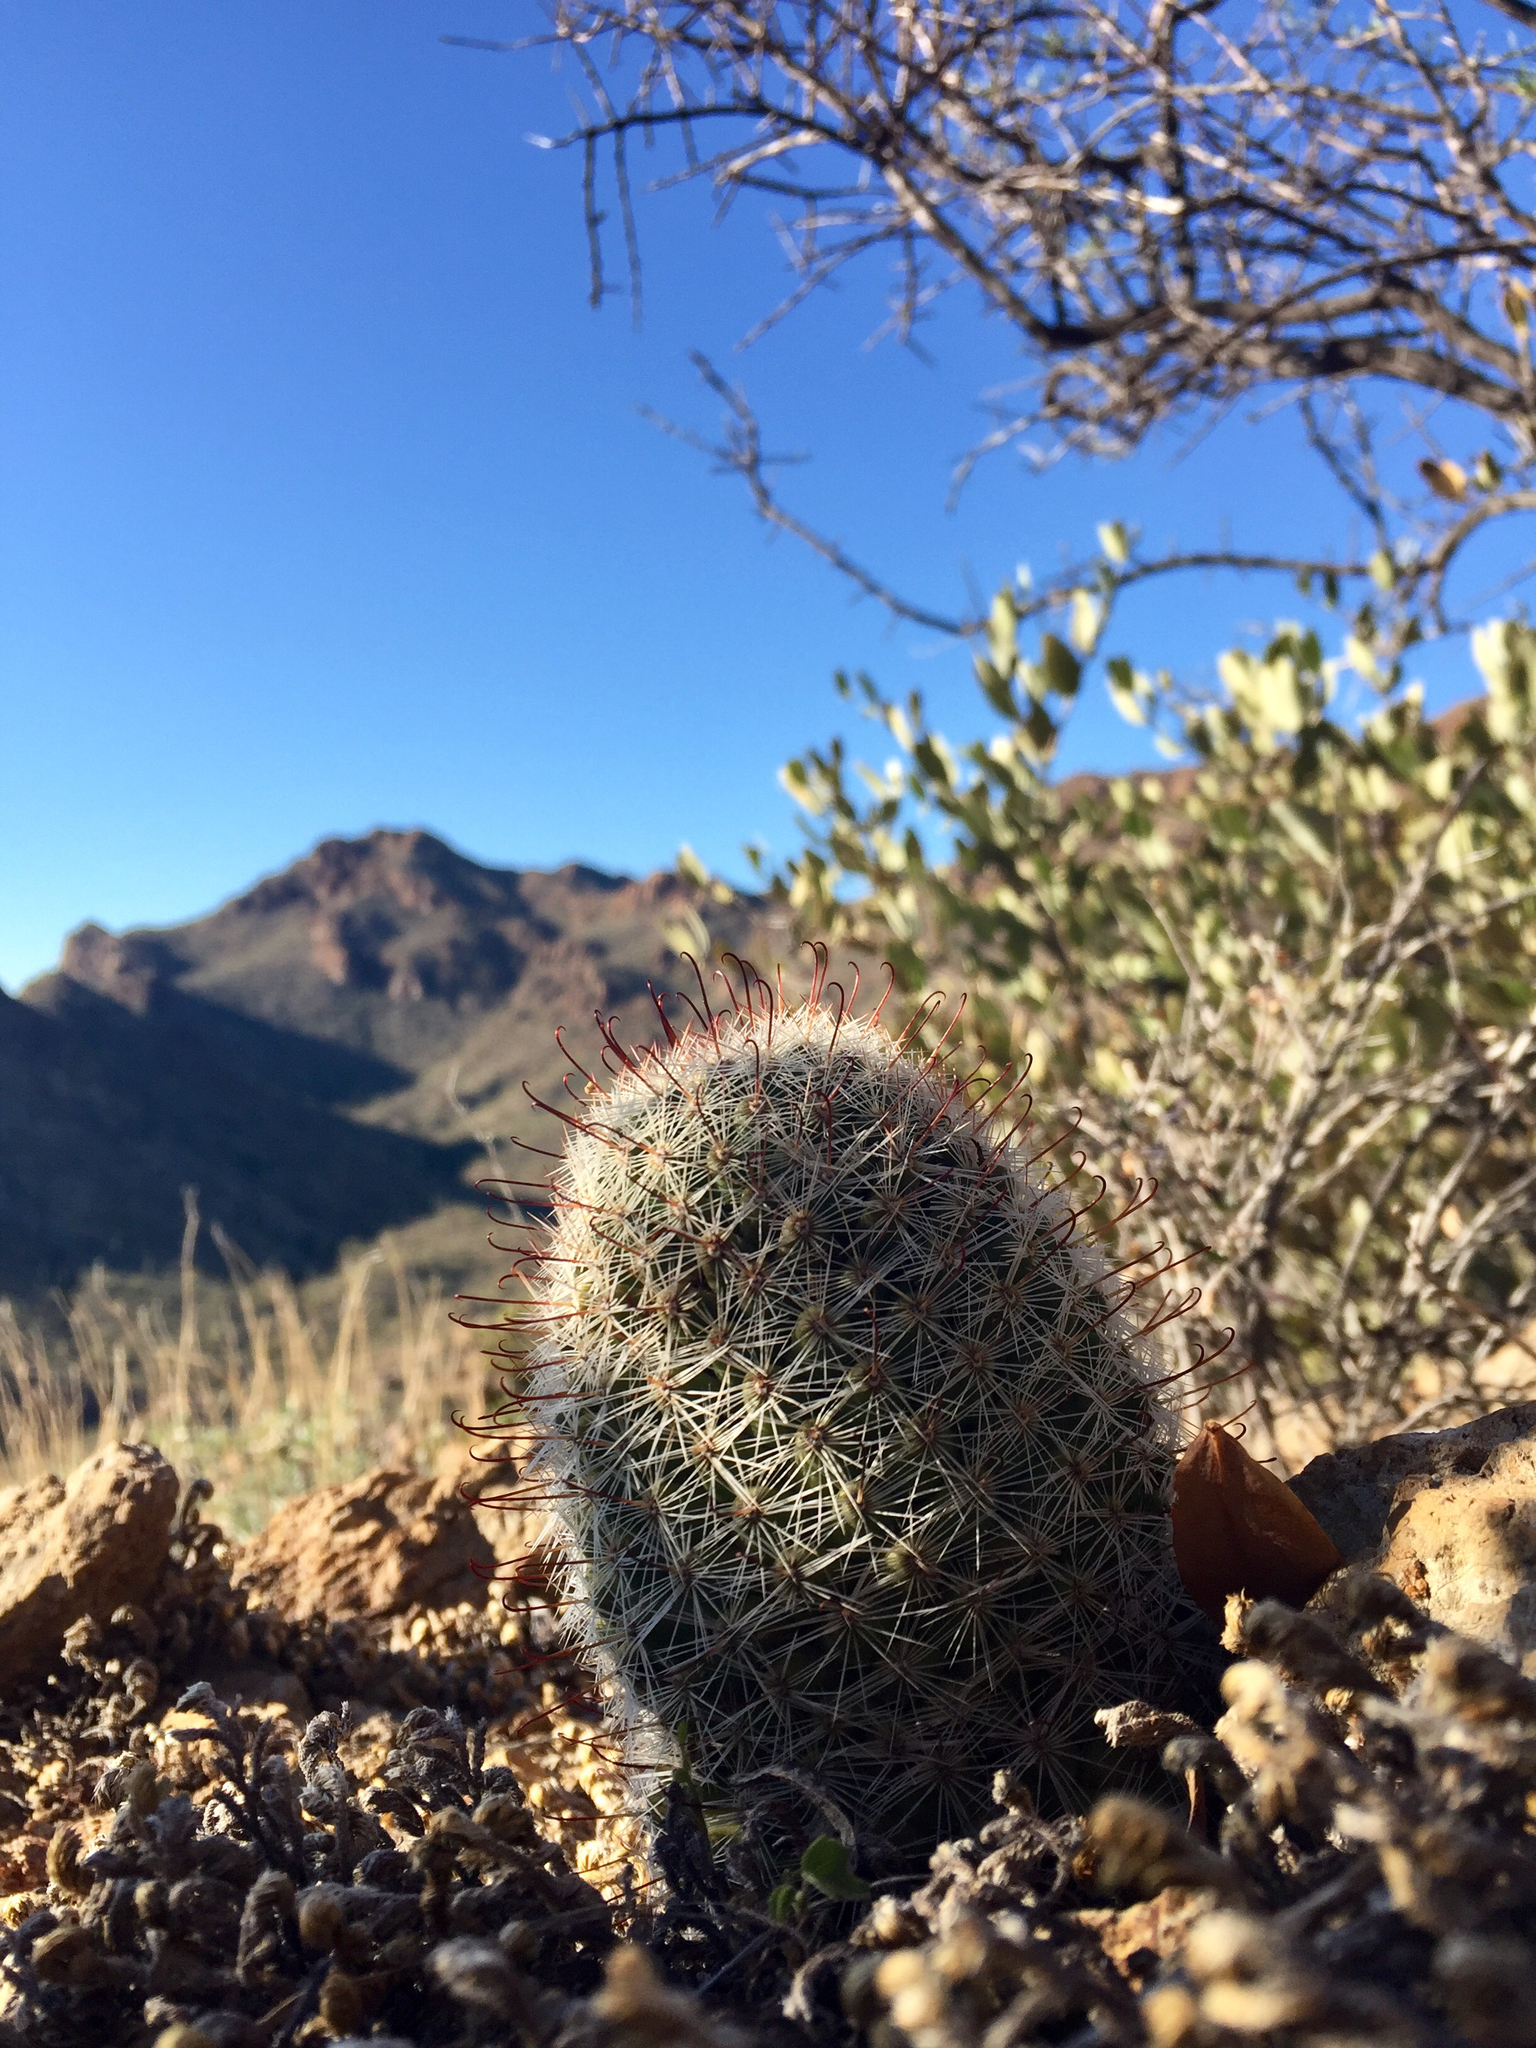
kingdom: Plantae
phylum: Tracheophyta
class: Magnoliopsida
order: Caryophyllales
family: Cactaceae
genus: Cochemiea
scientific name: Cochemiea grahamii
